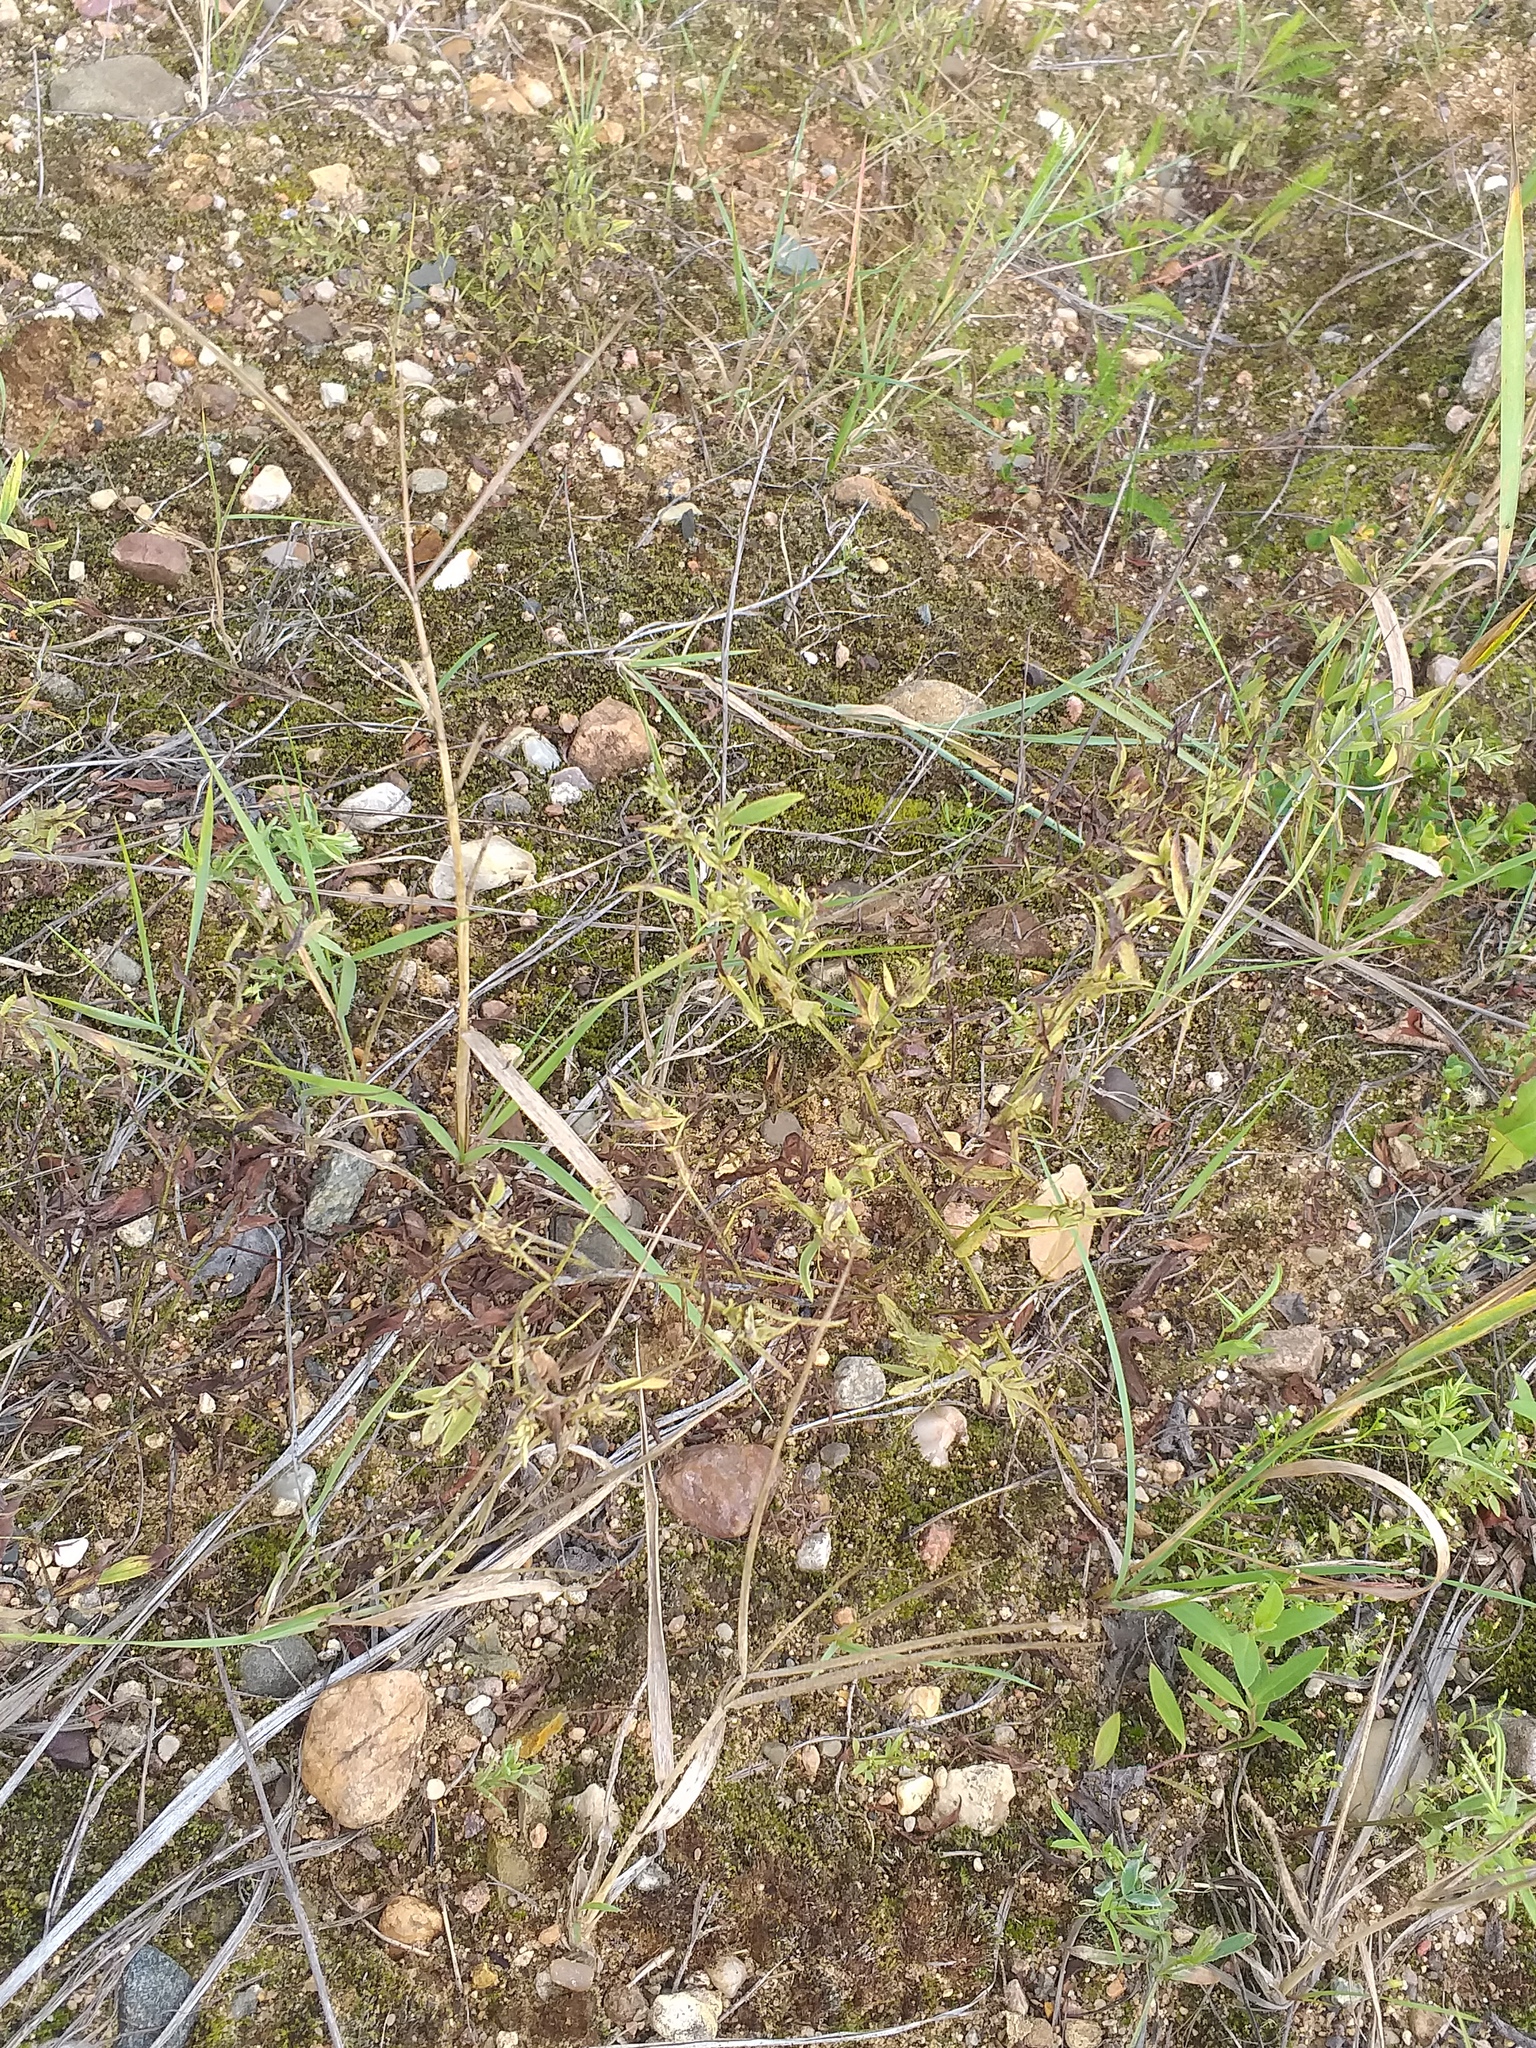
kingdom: Plantae
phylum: Tracheophyta
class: Magnoliopsida
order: Fabales
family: Fabaceae
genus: Lathyrus
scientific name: Lathyrus pratensis
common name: Meadow vetchling
